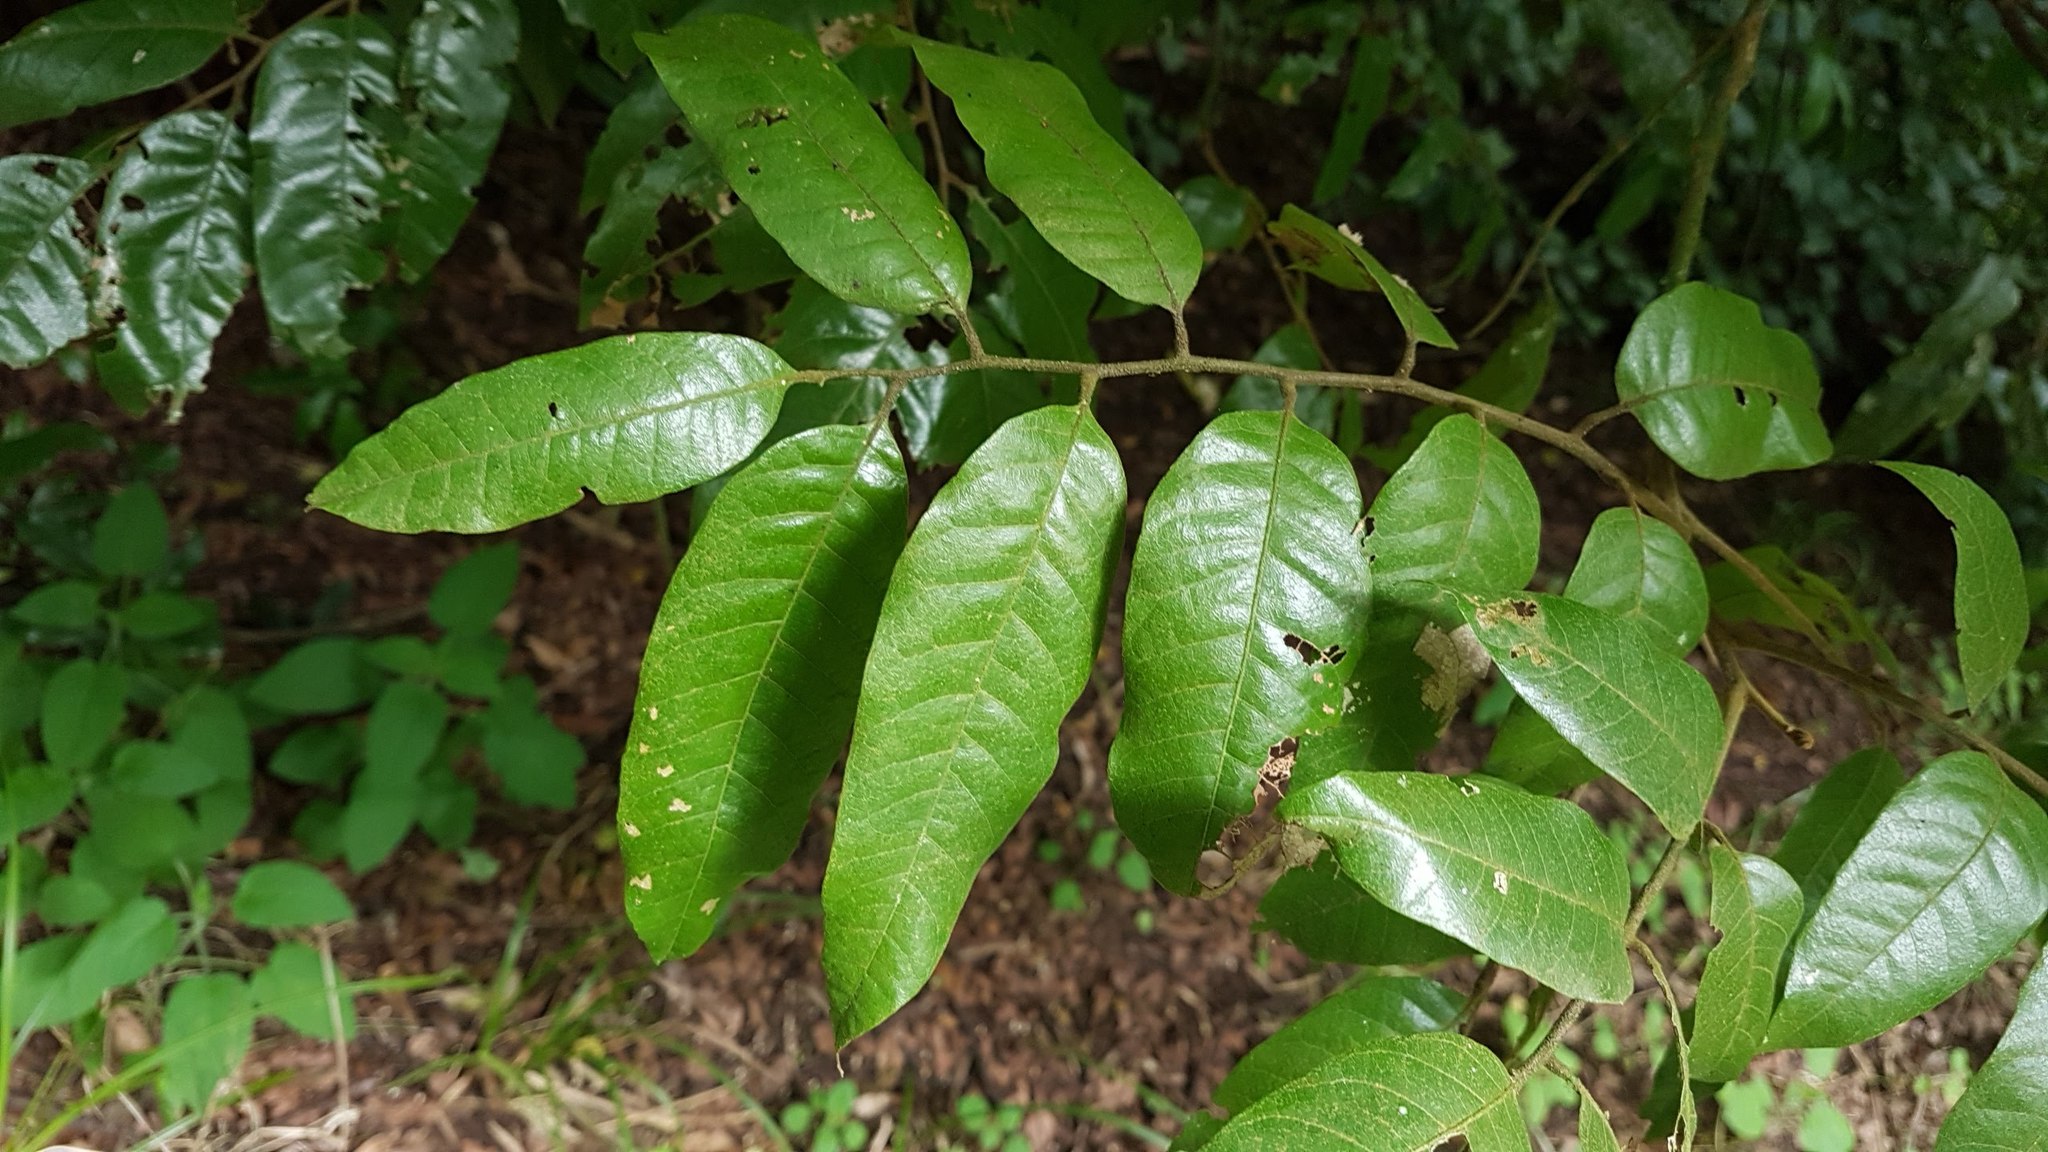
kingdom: Plantae
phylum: Tracheophyta
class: Magnoliopsida
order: Sapindales
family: Sapindaceae
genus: Alectryon
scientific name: Alectryon excelsus
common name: Three kings titoki
